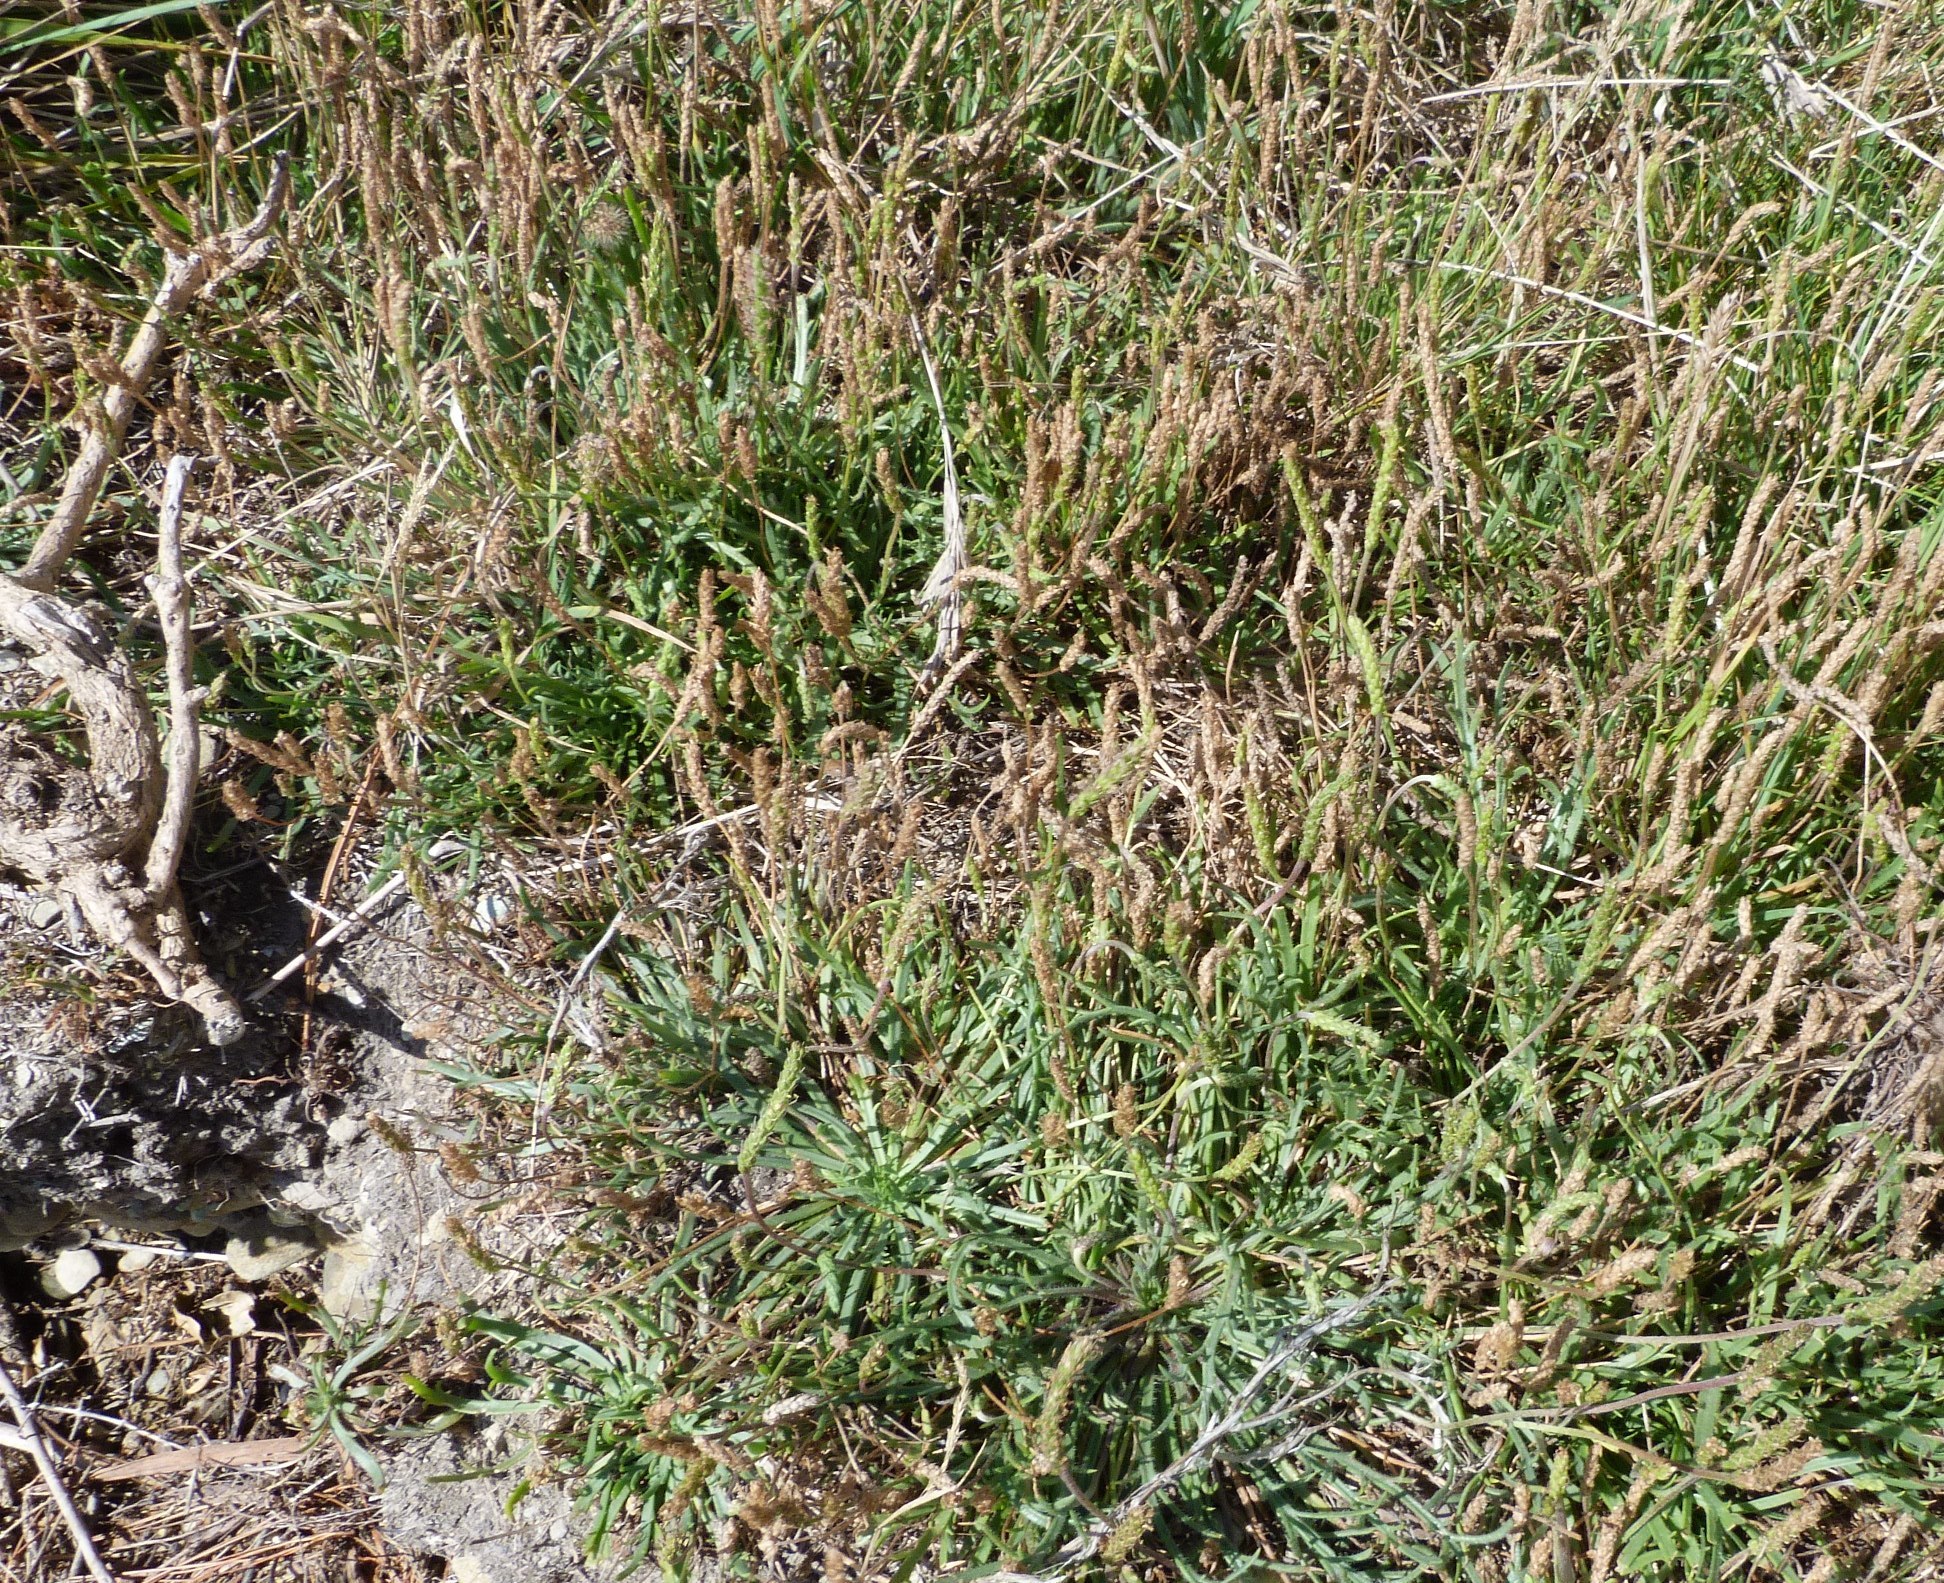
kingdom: Plantae
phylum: Tracheophyta
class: Magnoliopsida
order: Lamiales
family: Plantaginaceae
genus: Plantago
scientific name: Plantago coronopus
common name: Buck's-horn plantain
